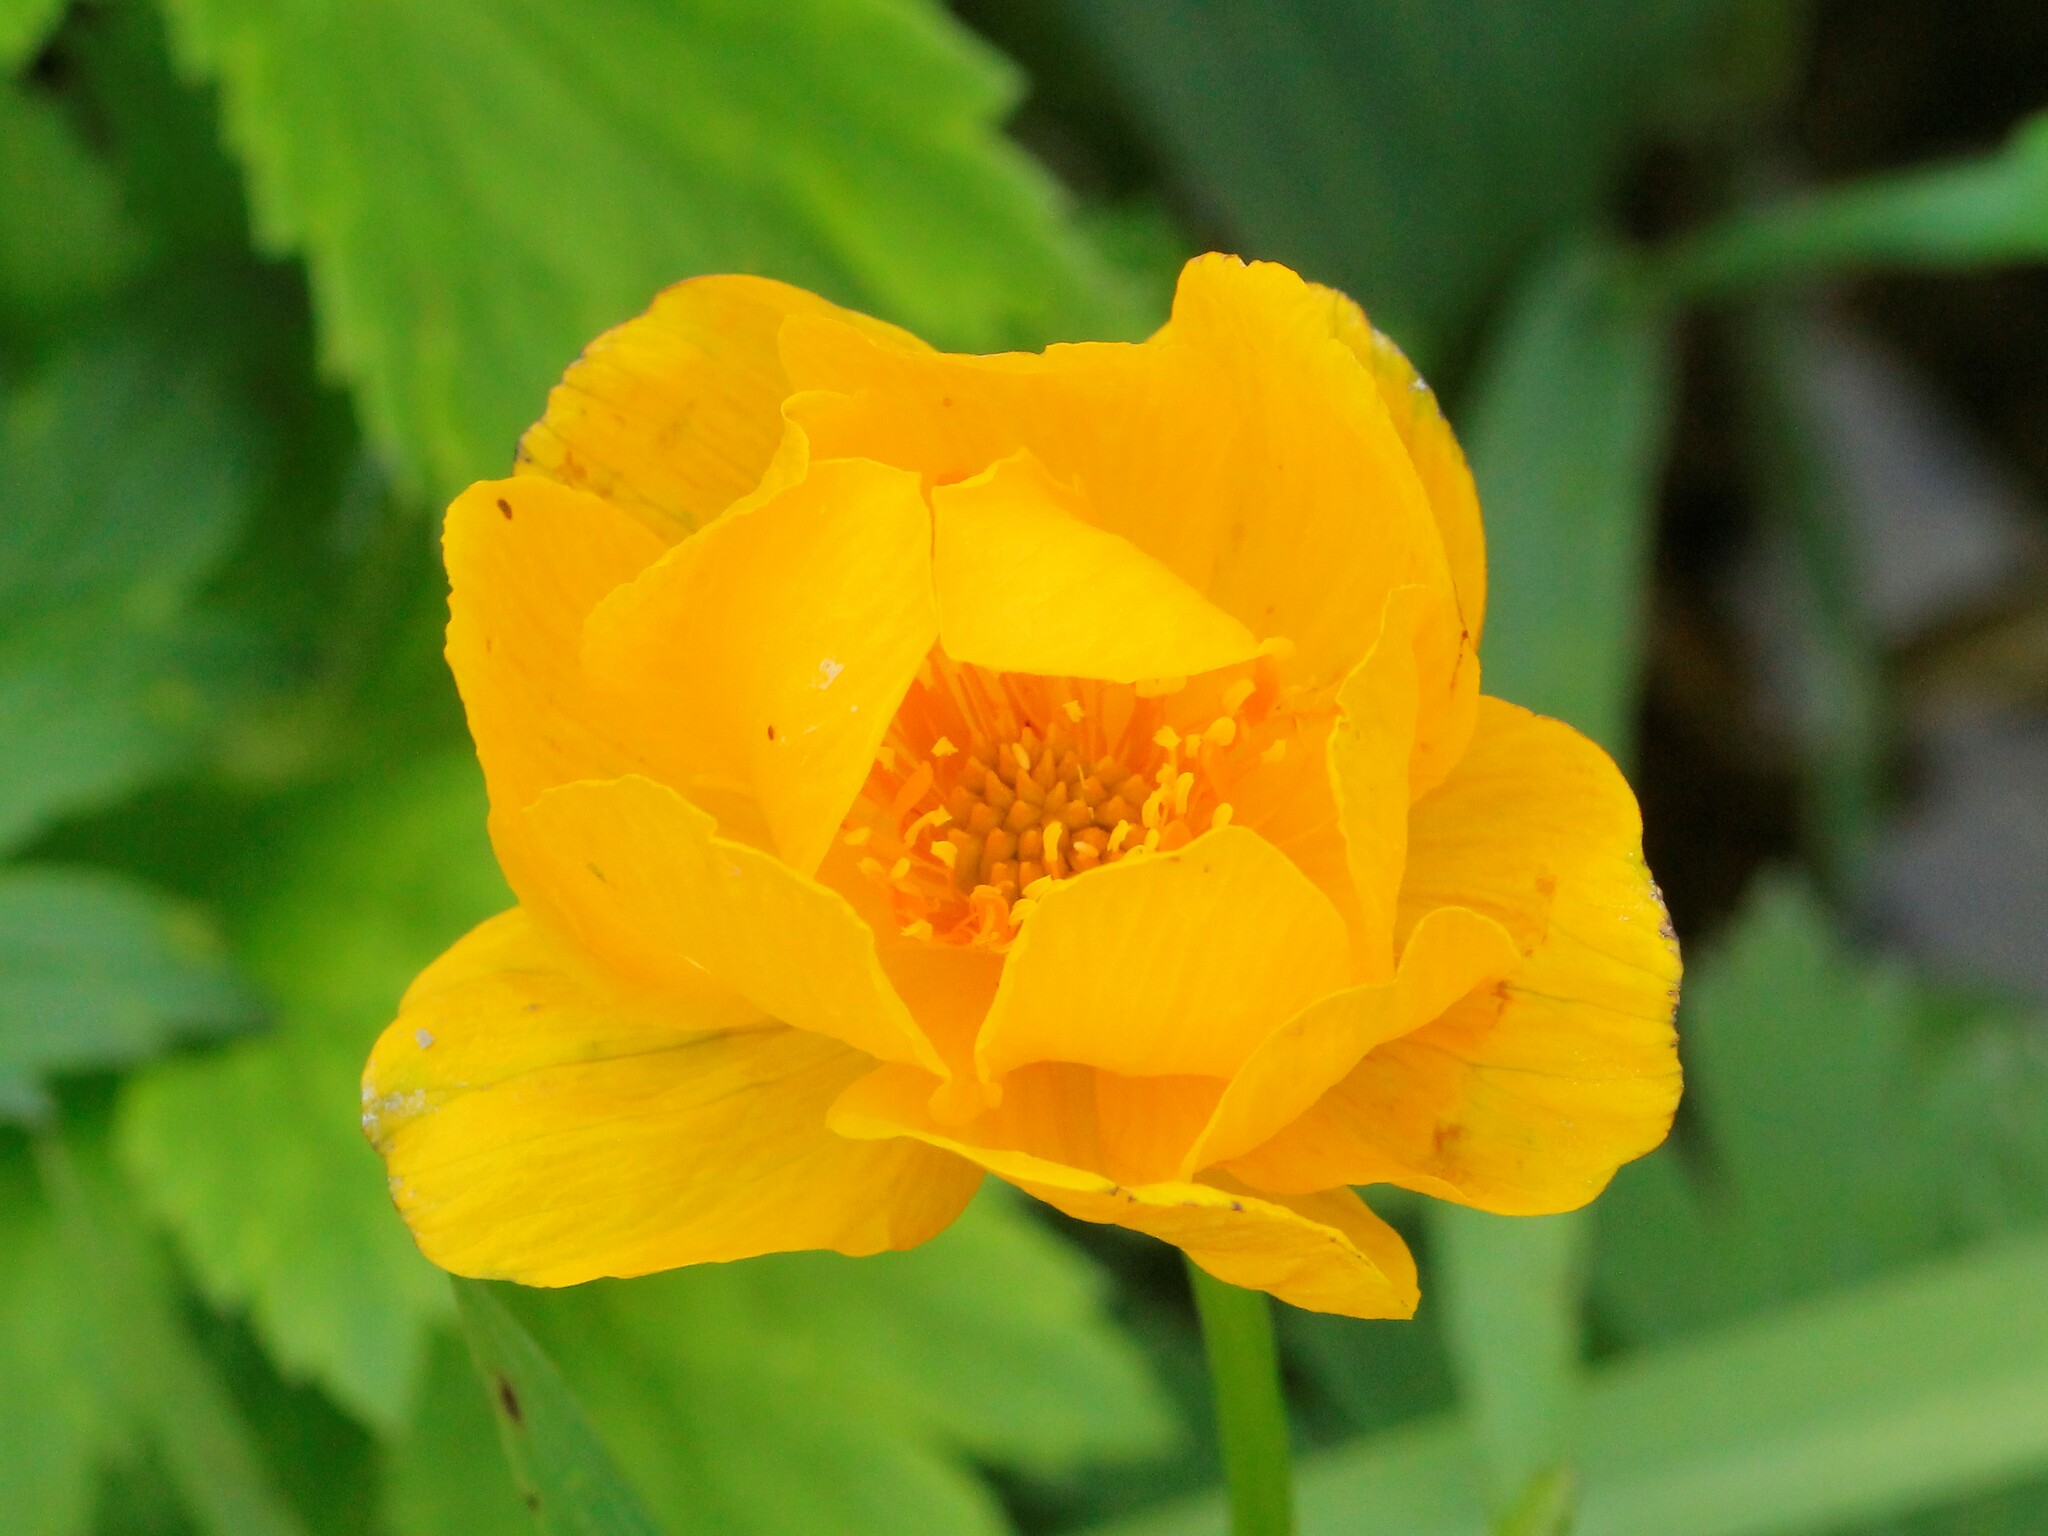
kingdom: Plantae
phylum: Tracheophyta
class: Magnoliopsida
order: Ranunculales
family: Ranunculaceae
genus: Trollius
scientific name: Trollius europaeus
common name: European globeflower
